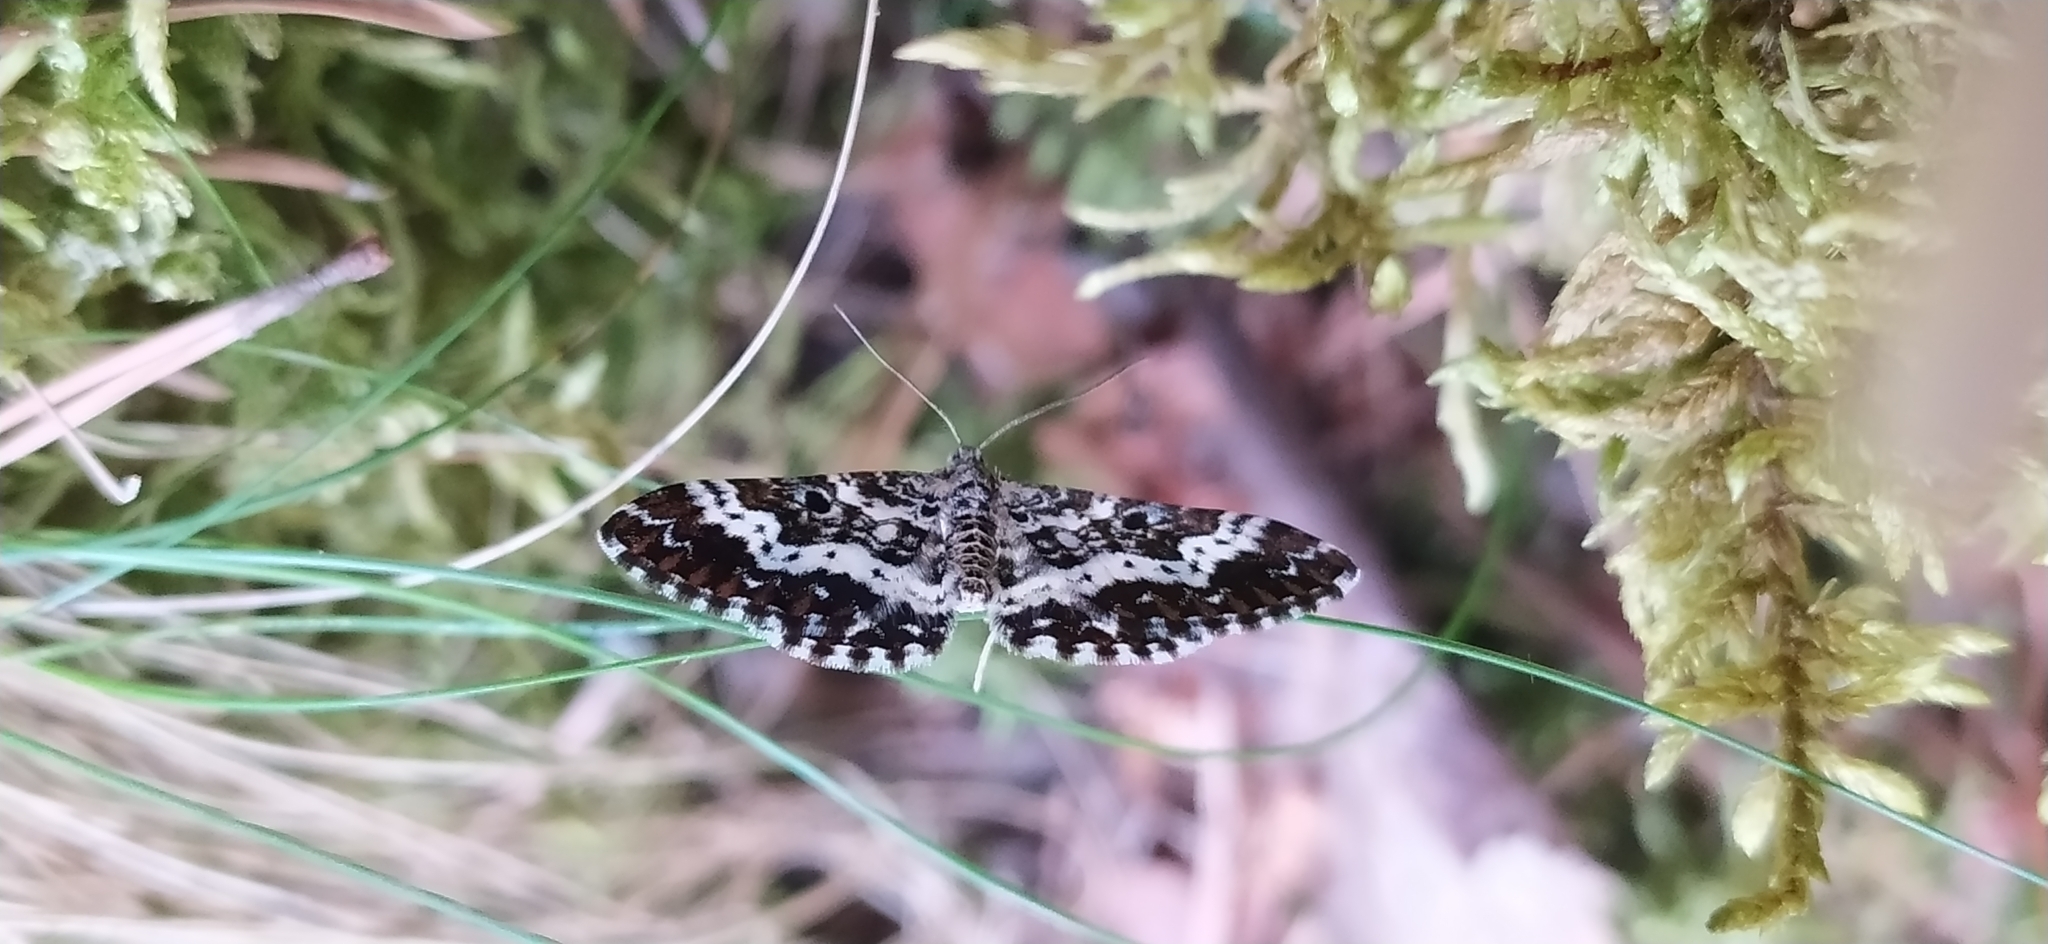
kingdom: Animalia
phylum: Arthropoda
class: Insecta
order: Lepidoptera
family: Geometridae
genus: Epirrhoe
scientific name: Epirrhoe tristata
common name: Small argent & sable
